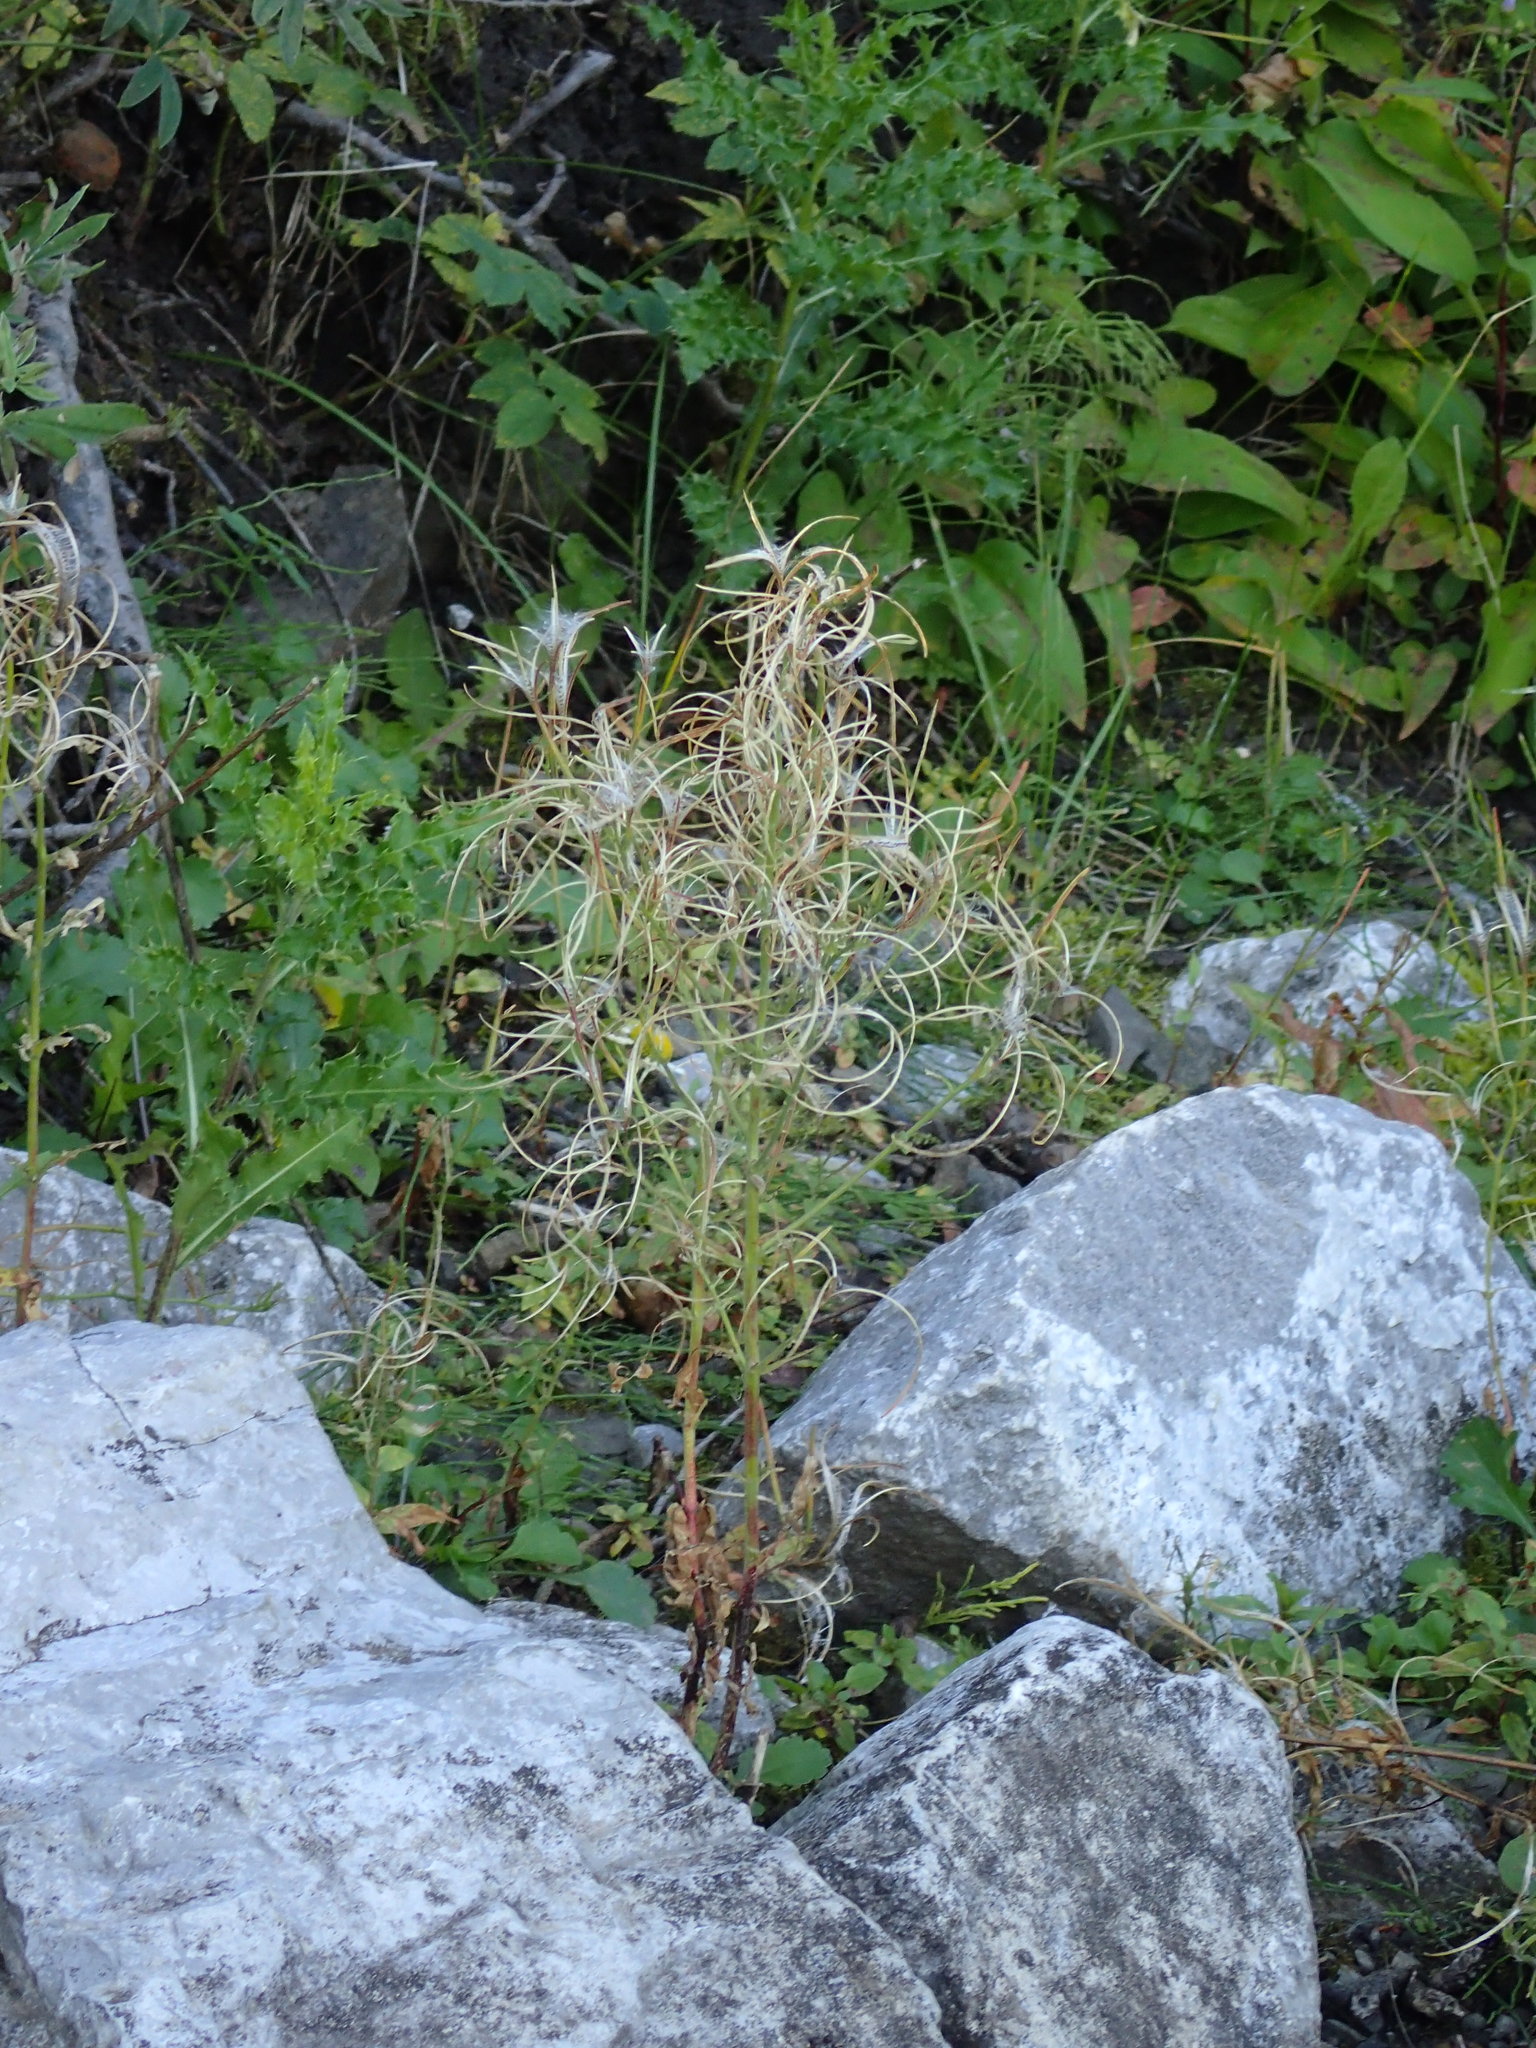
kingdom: Plantae
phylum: Tracheophyta
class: Magnoliopsida
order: Myrtales
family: Onagraceae
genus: Epilobium
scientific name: Epilobium ciliatum
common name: American willowherb
